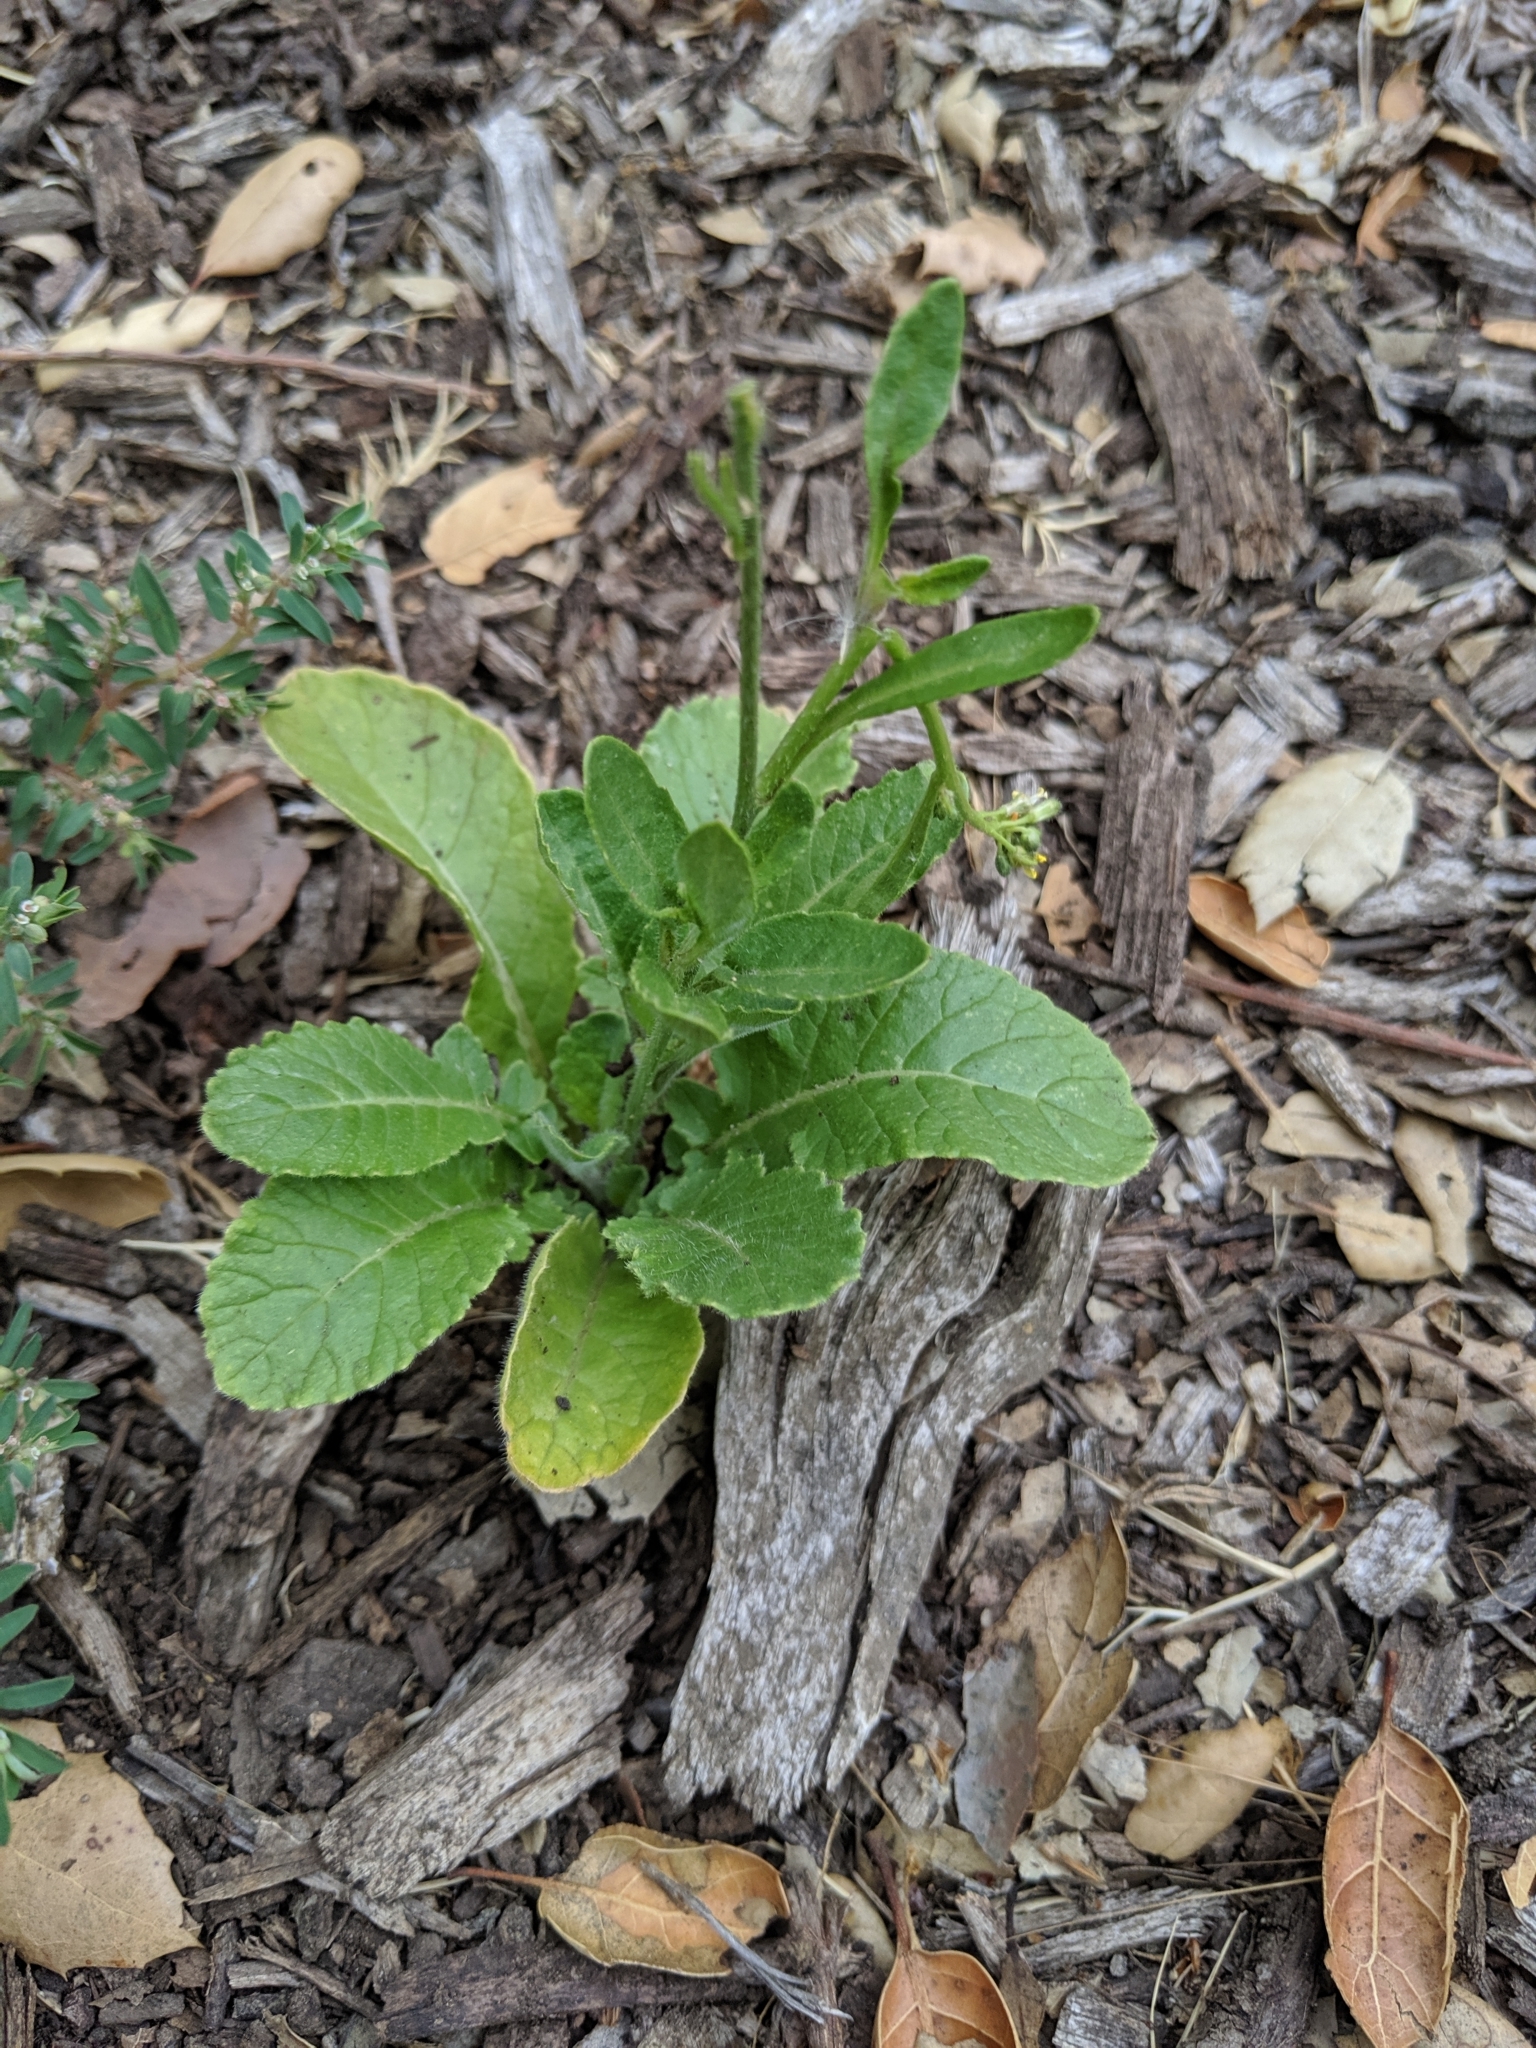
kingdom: Plantae
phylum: Tracheophyta
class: Magnoliopsida
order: Brassicales
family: Brassicaceae
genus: Hirschfeldia
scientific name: Hirschfeldia incana
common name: Hoary mustard
